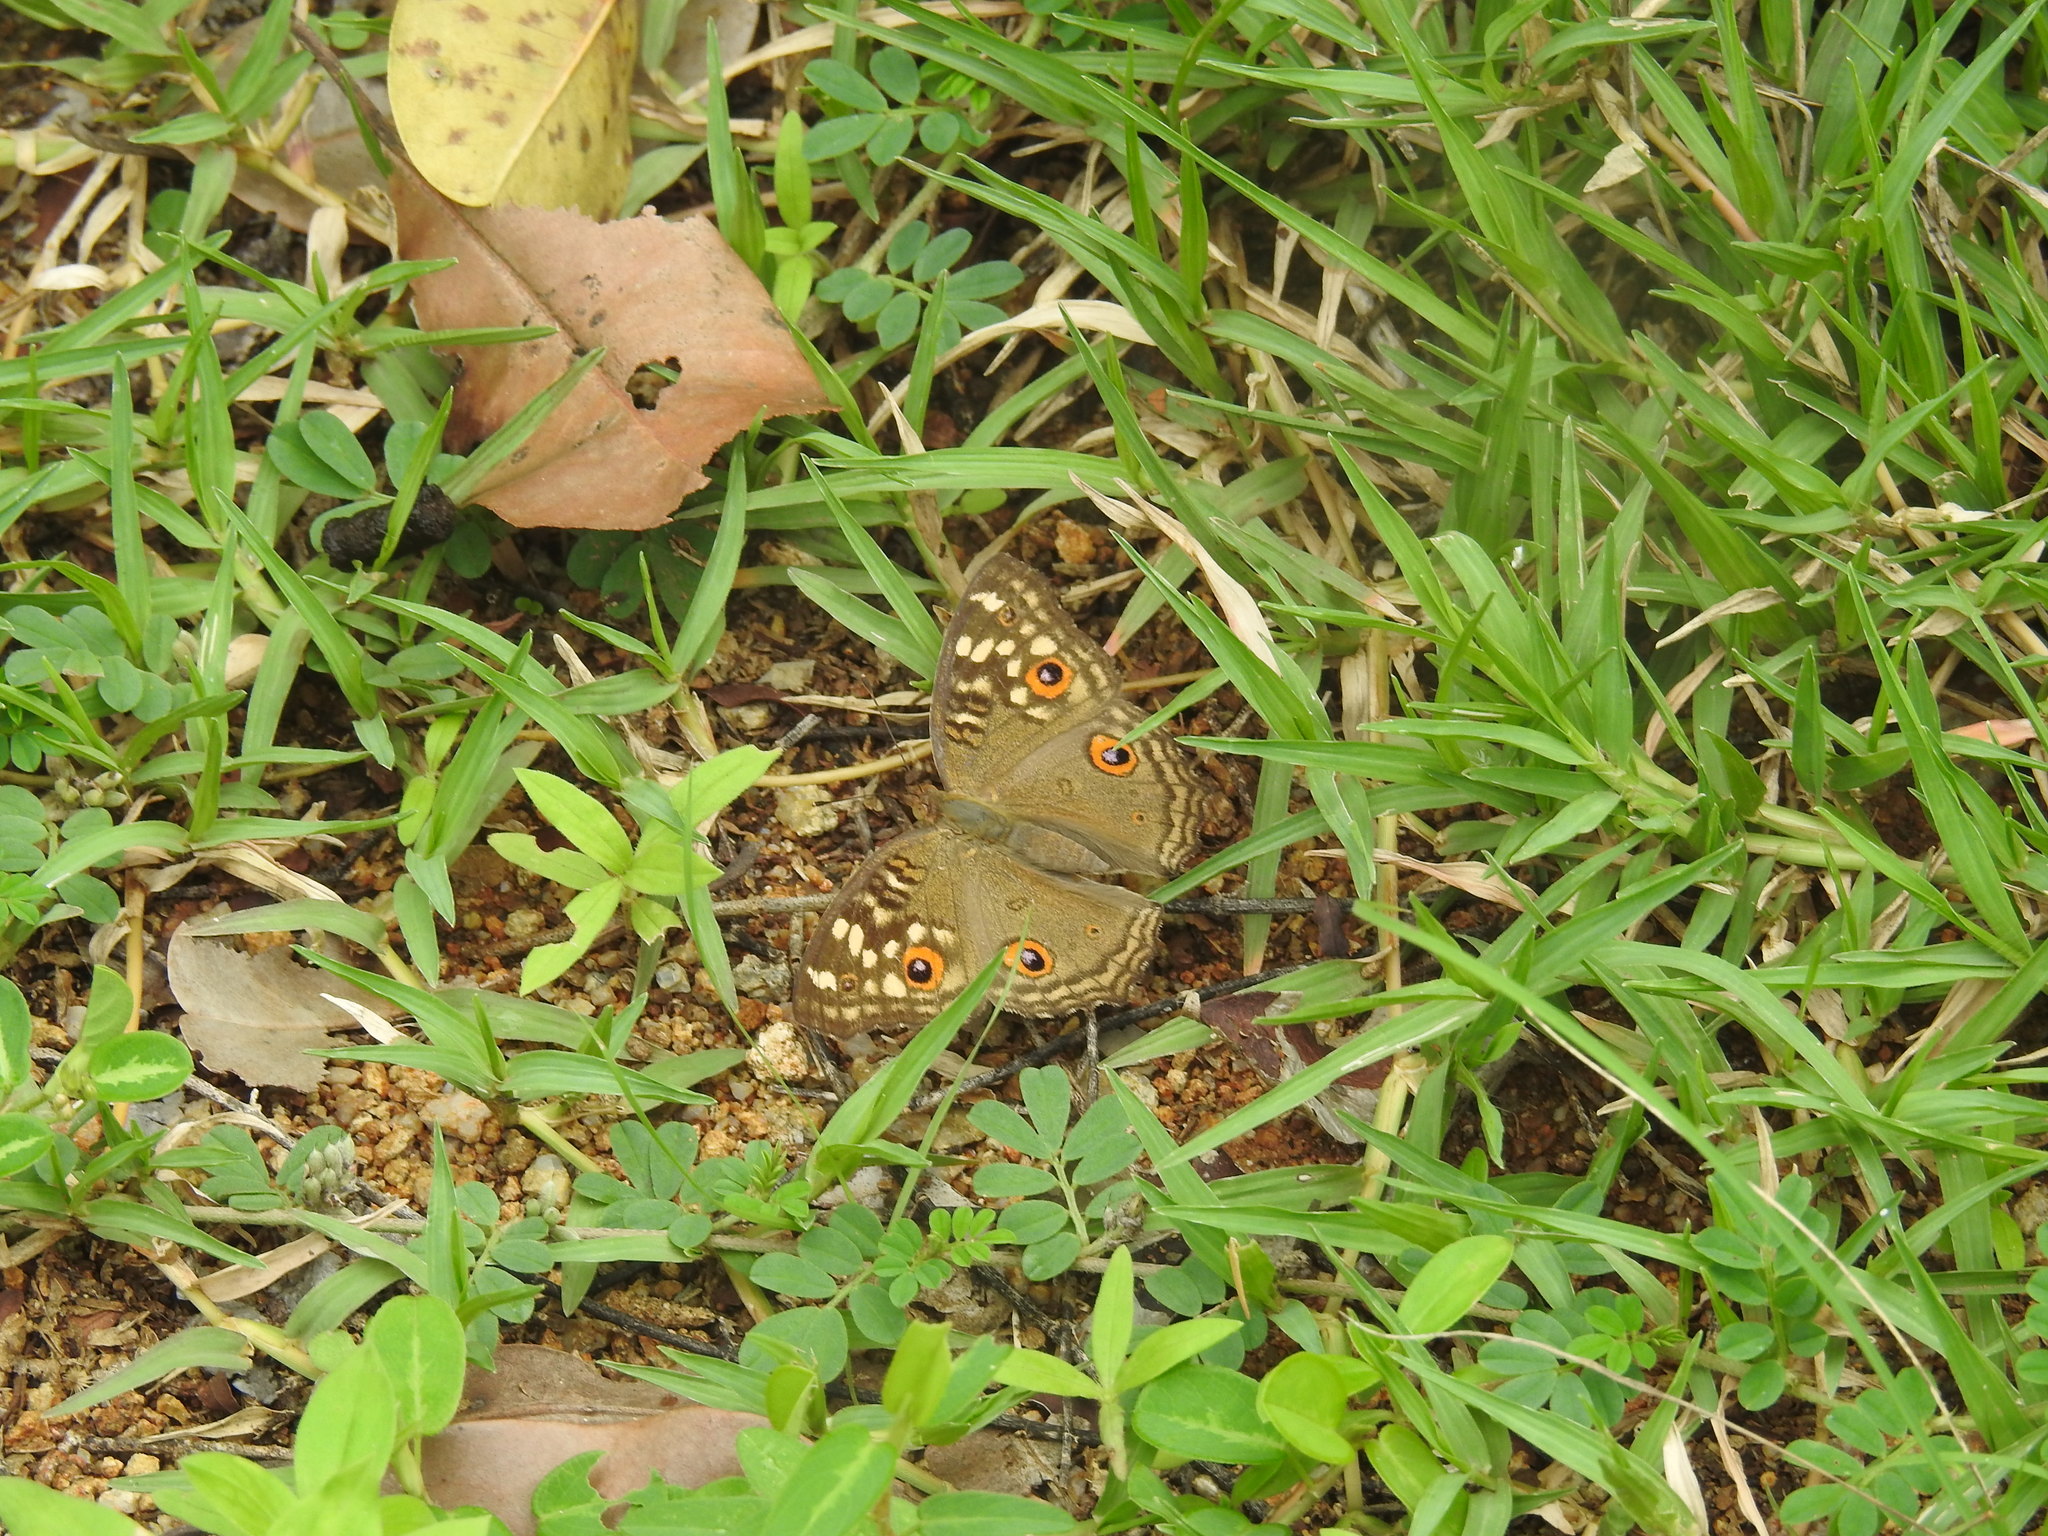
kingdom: Animalia
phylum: Arthropoda
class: Insecta
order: Lepidoptera
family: Nymphalidae
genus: Junonia
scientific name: Junonia lemonias
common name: Lemon pansy
